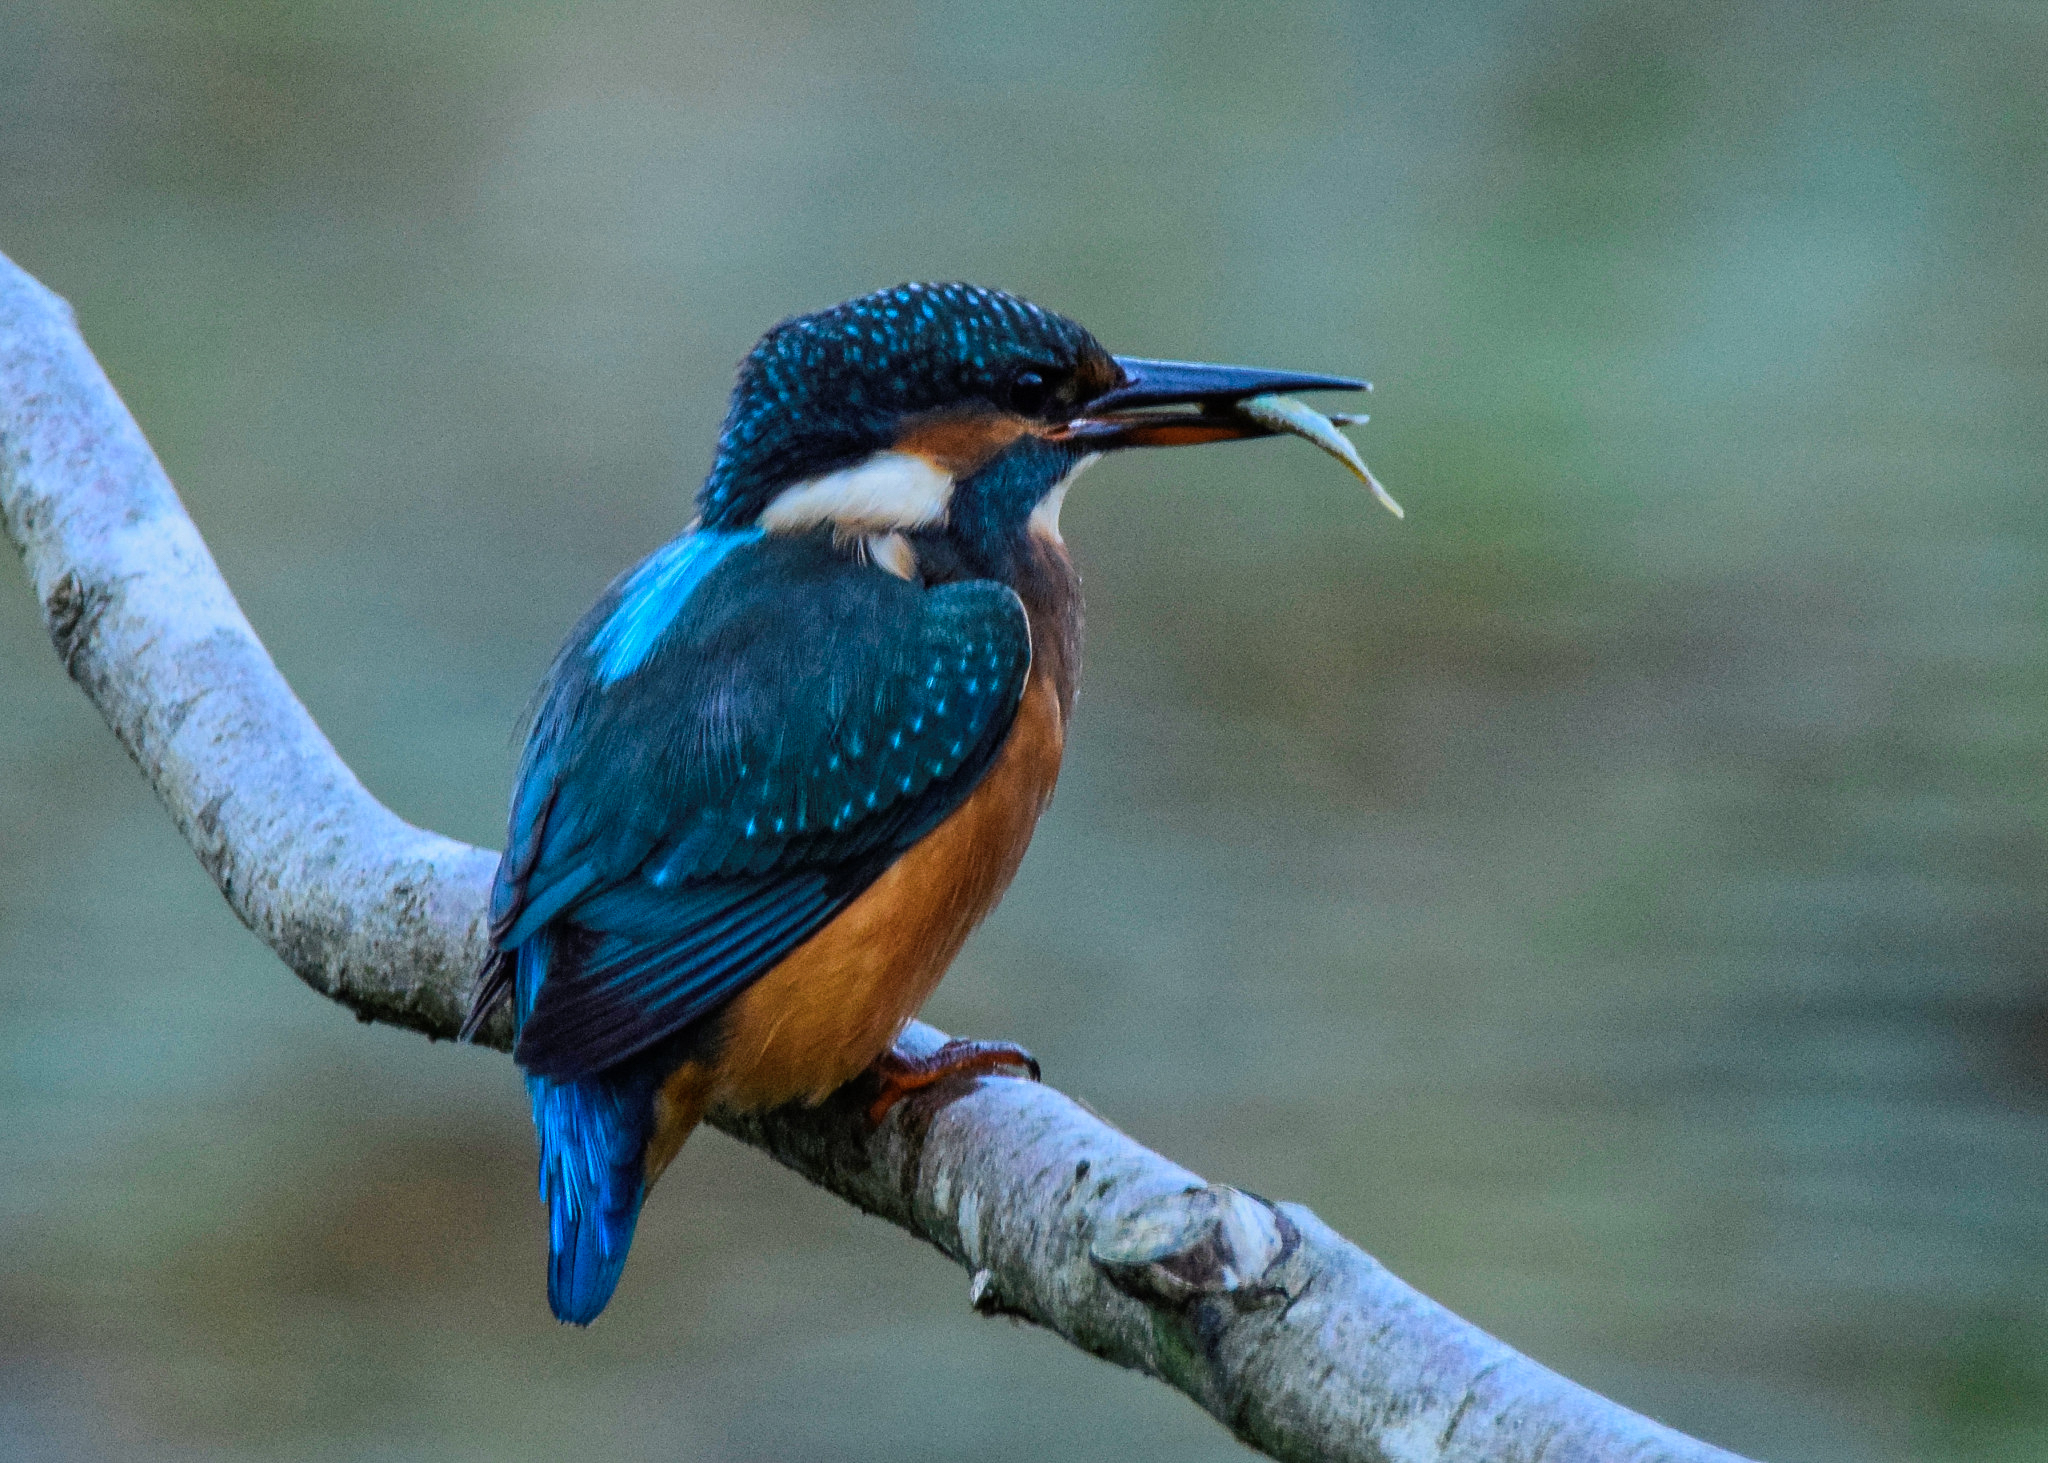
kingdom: Animalia
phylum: Chordata
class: Aves
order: Coraciiformes
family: Alcedinidae
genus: Alcedo
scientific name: Alcedo atthis
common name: Common kingfisher
